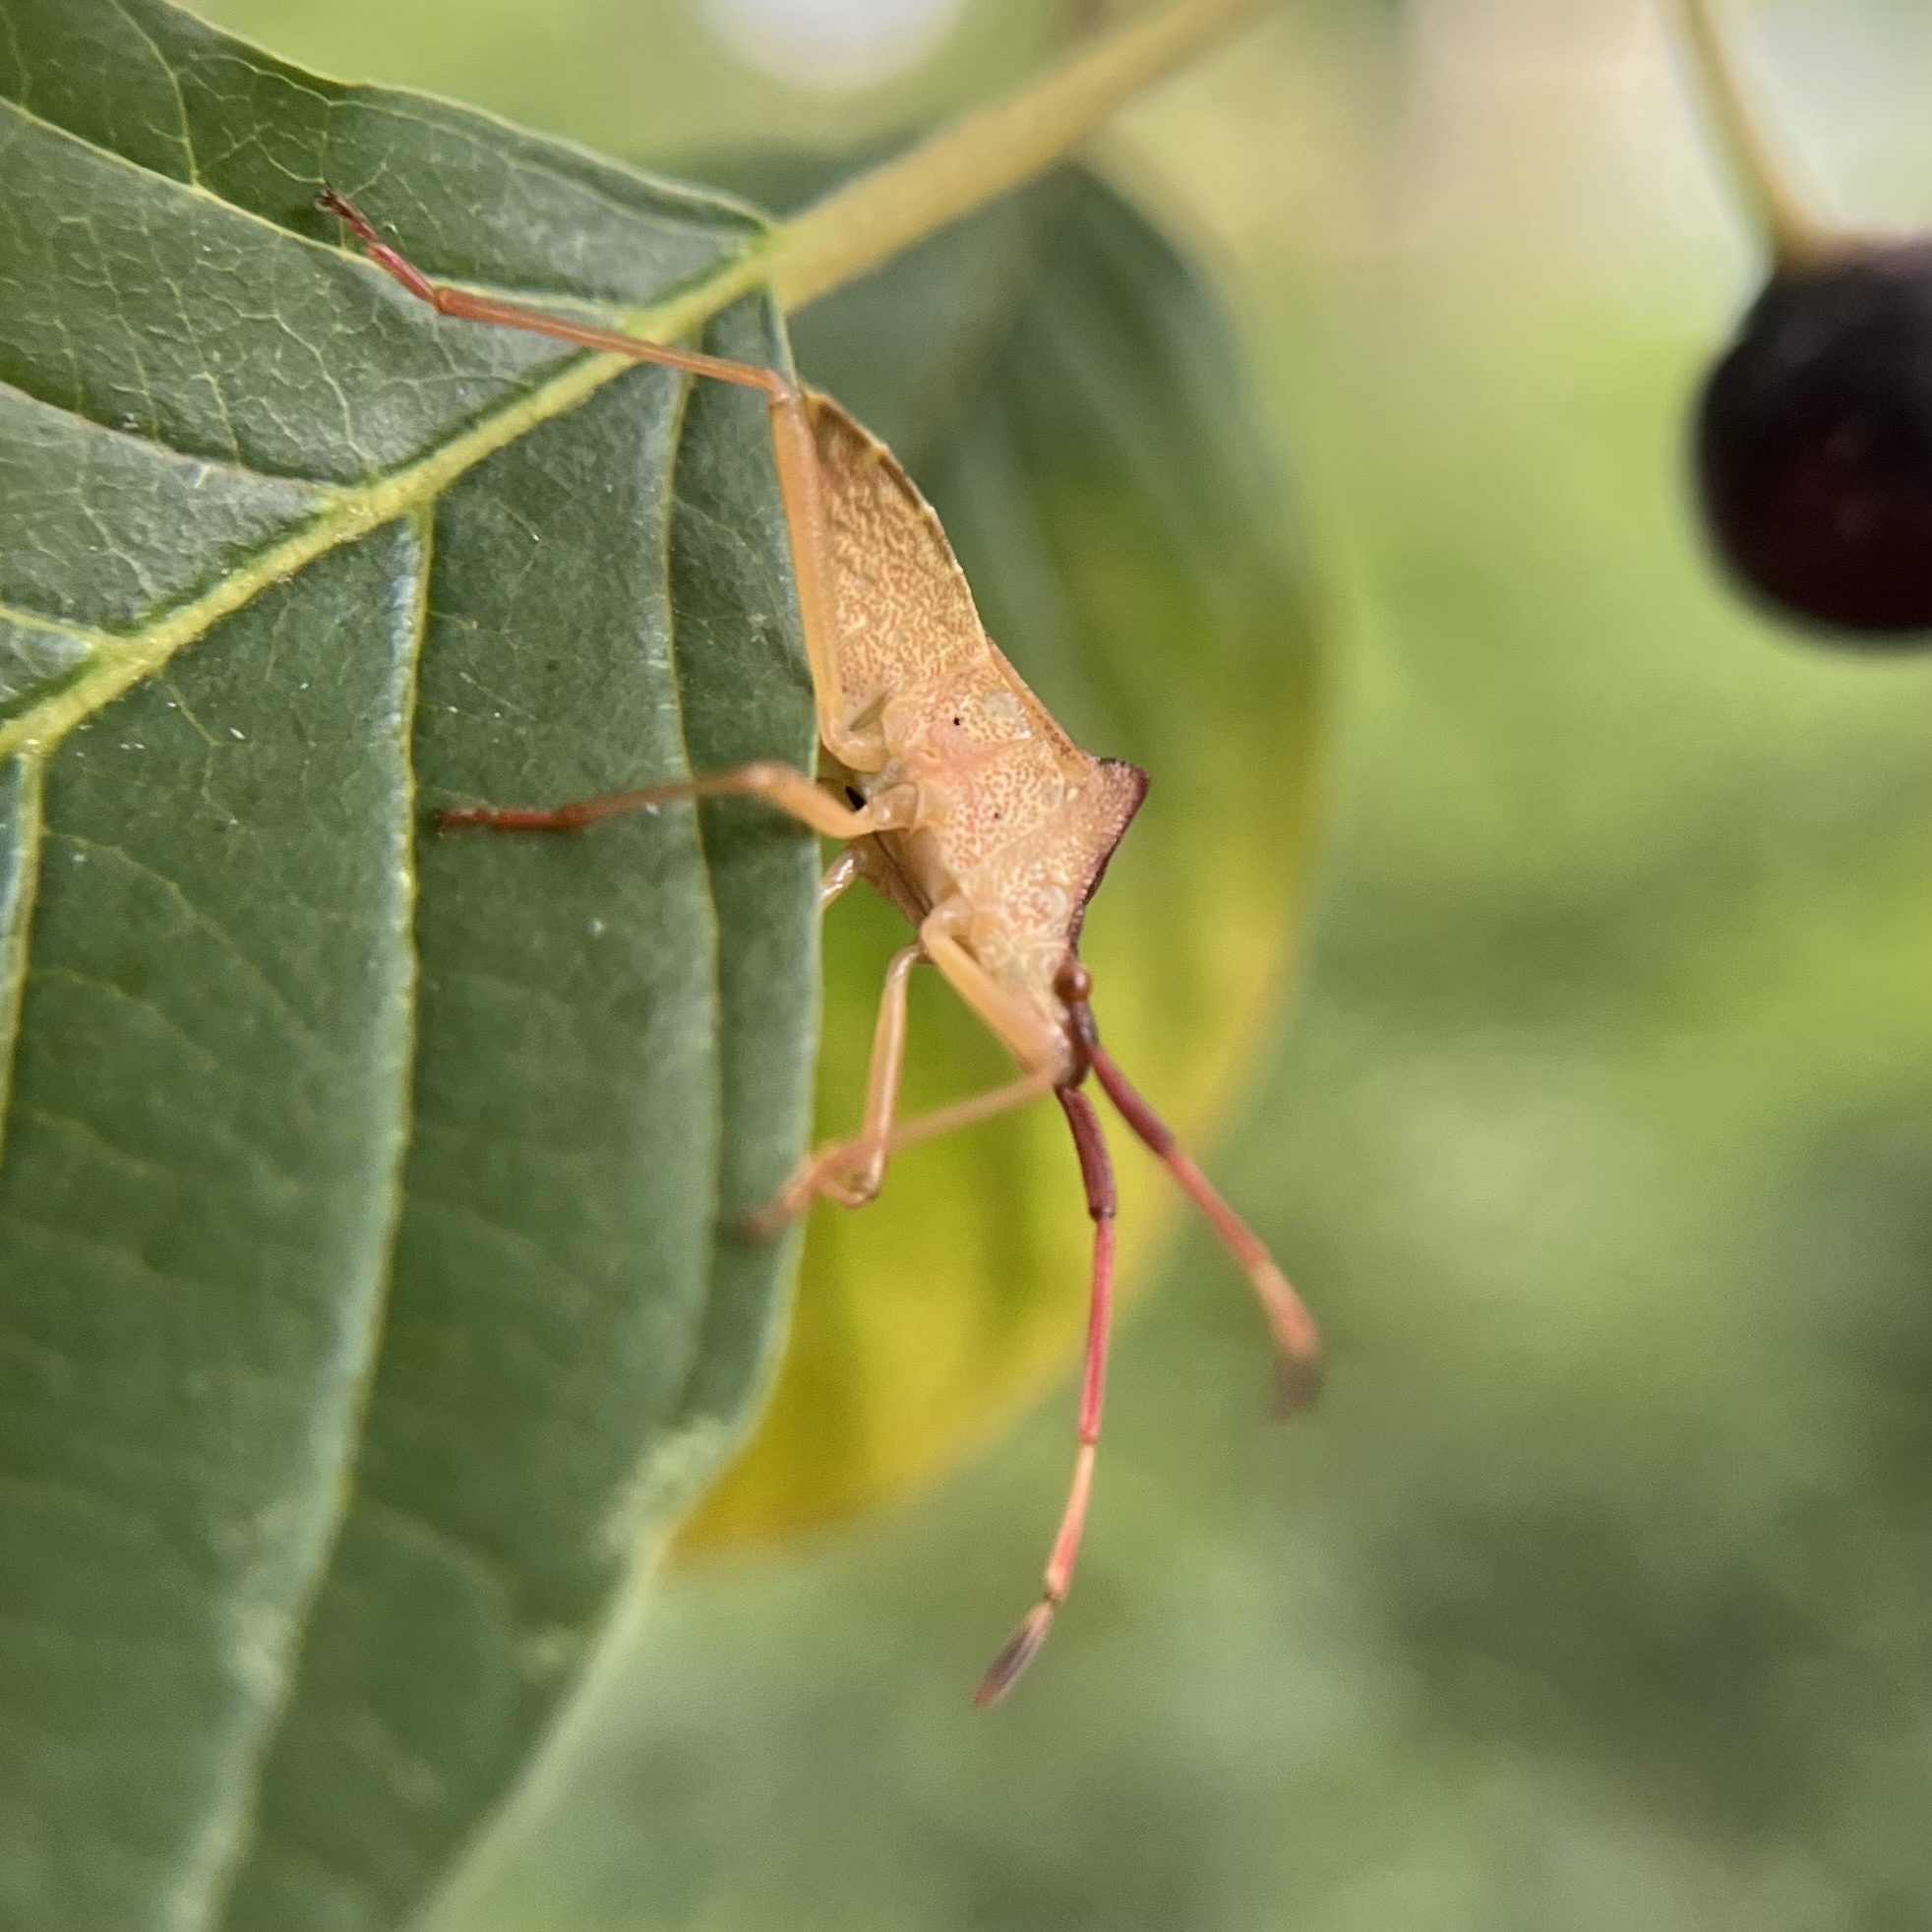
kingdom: Animalia
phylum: Arthropoda
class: Insecta
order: Hemiptera
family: Coreidae
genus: Gonocerus
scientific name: Gonocerus acuteangulatus
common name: Box bug
